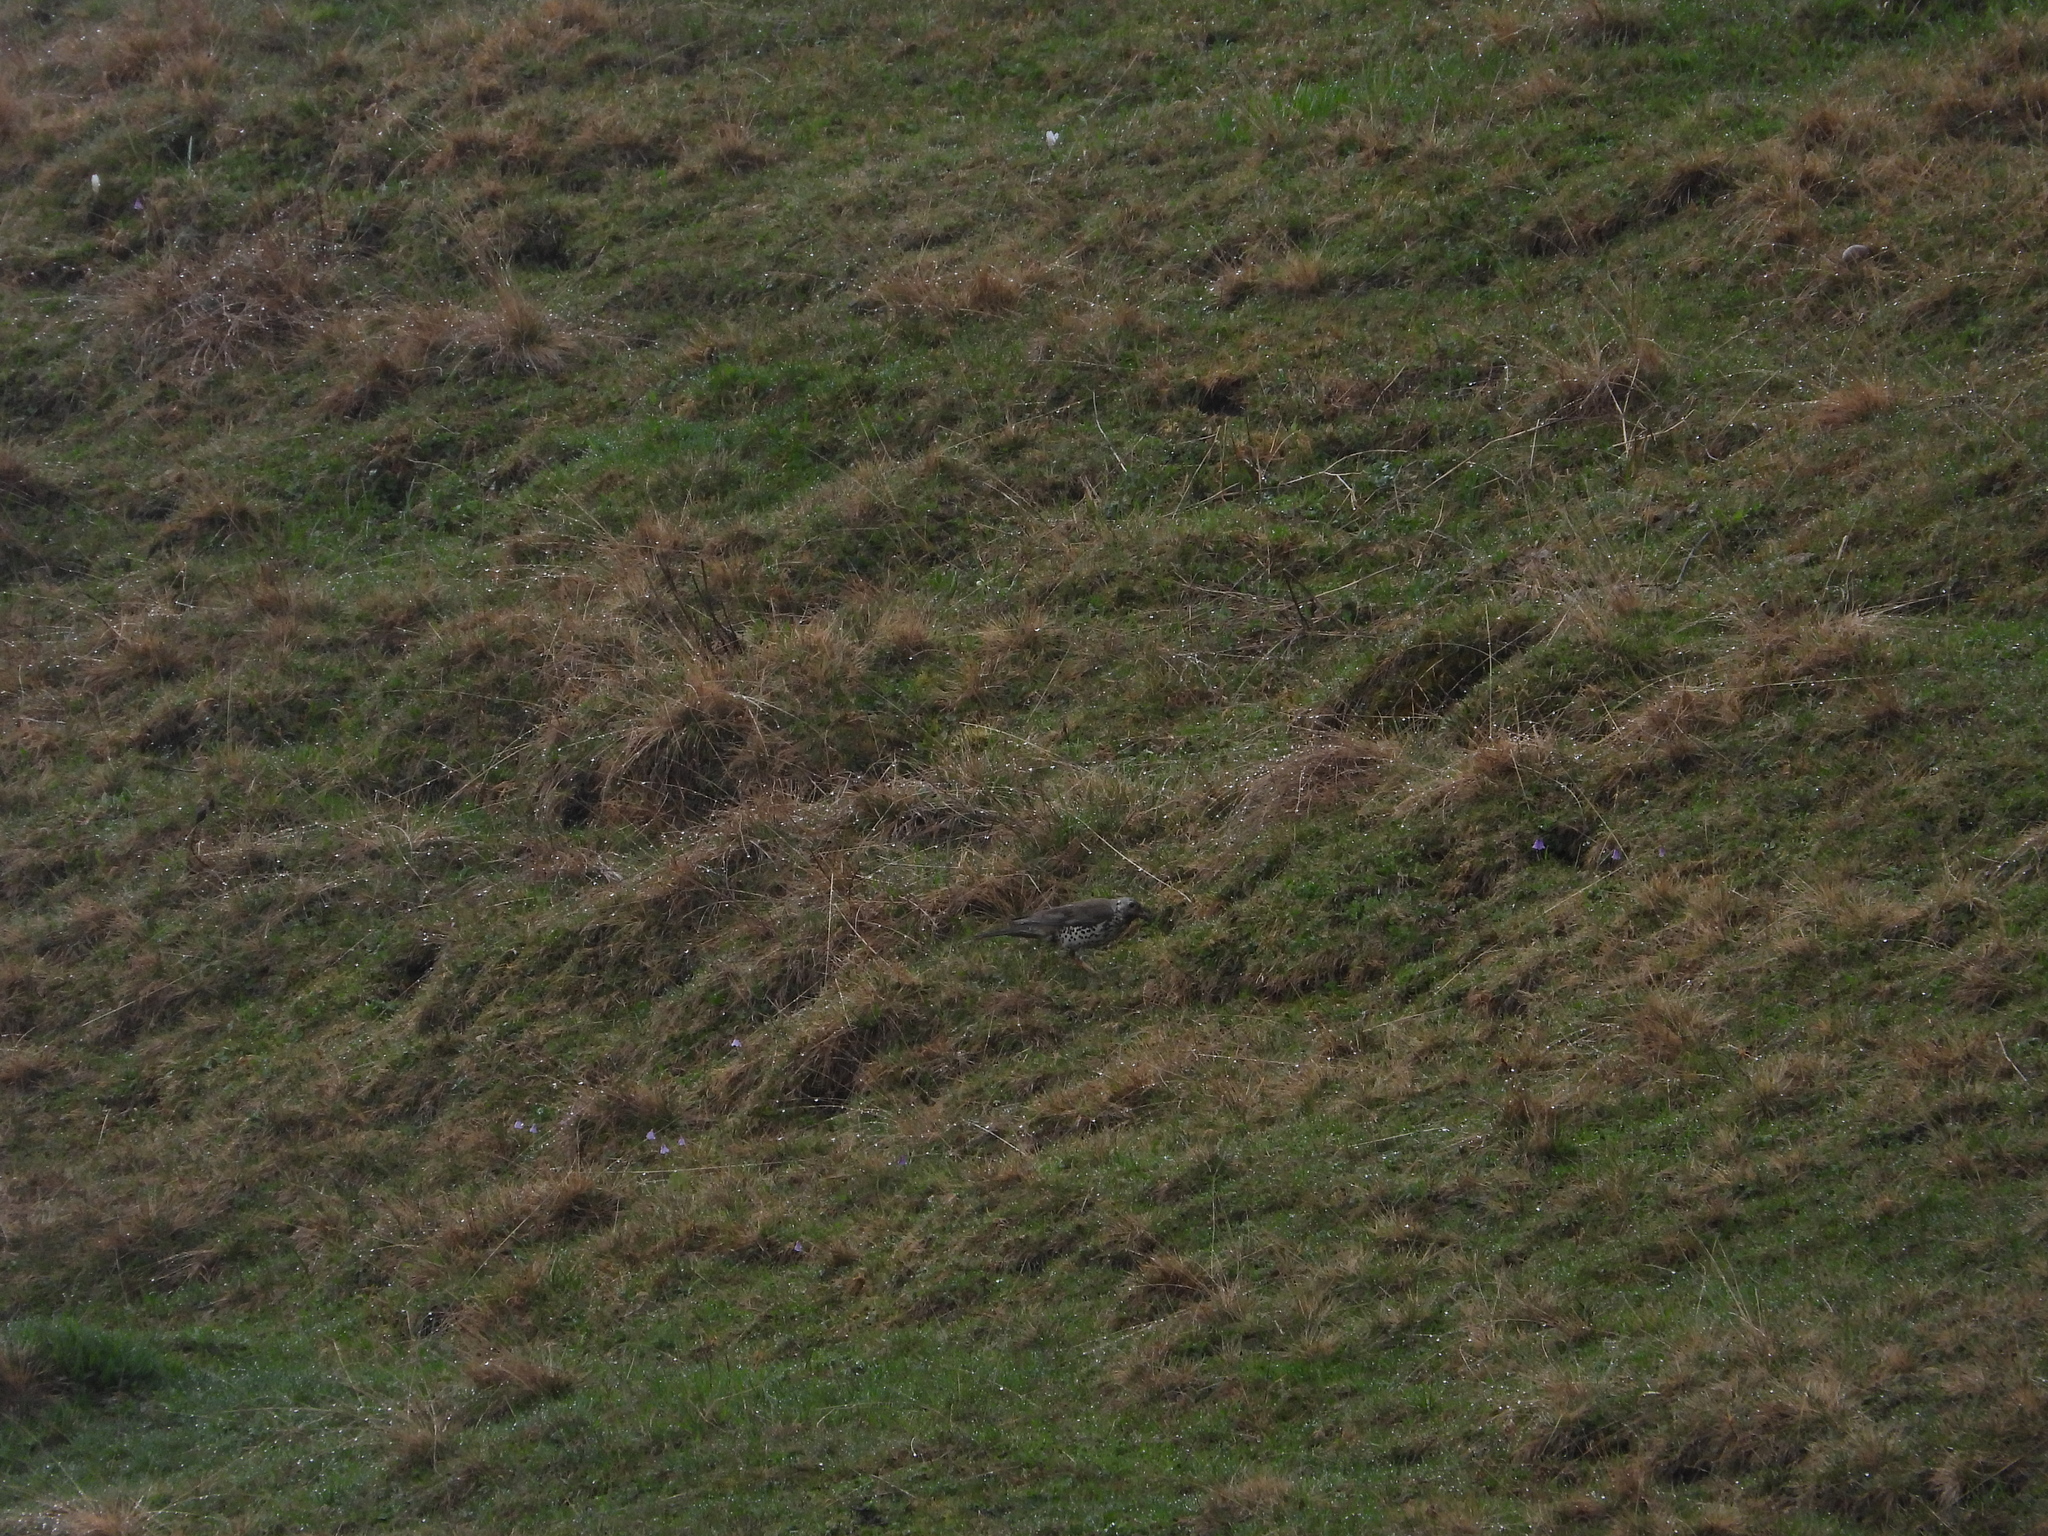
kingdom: Animalia
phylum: Chordata
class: Aves
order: Passeriformes
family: Turdidae
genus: Turdus
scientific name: Turdus viscivorus
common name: Mistle thrush
